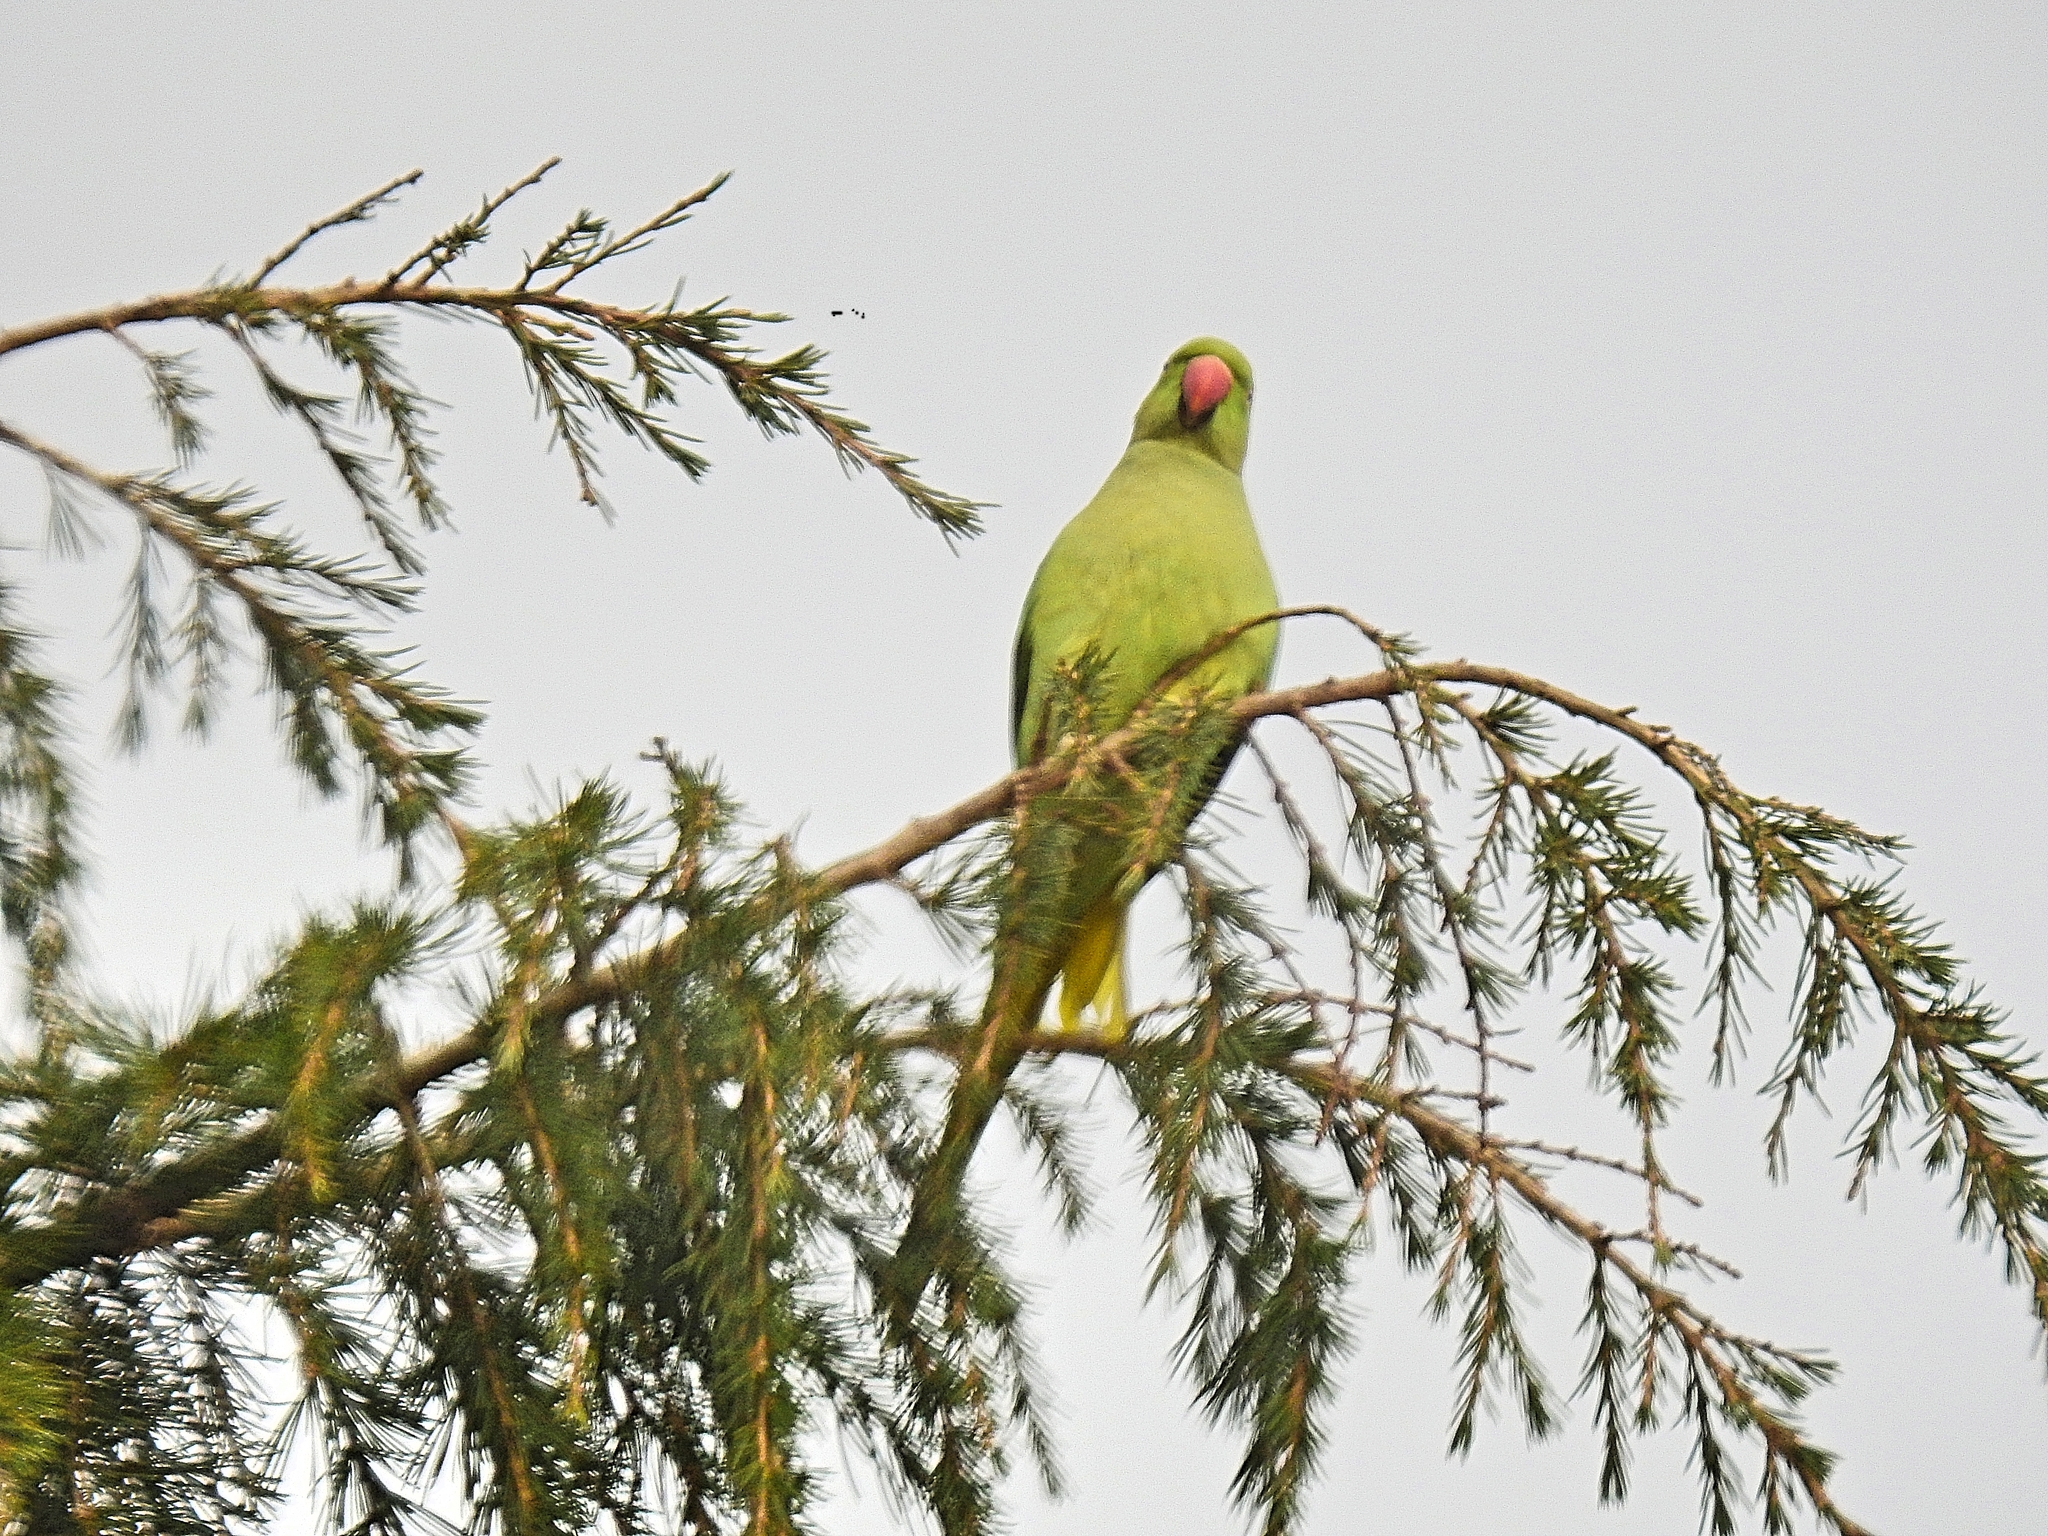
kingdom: Animalia
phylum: Chordata
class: Aves
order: Psittaciformes
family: Psittacidae
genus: Psittacula
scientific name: Psittacula krameri
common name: Rose-ringed parakeet
